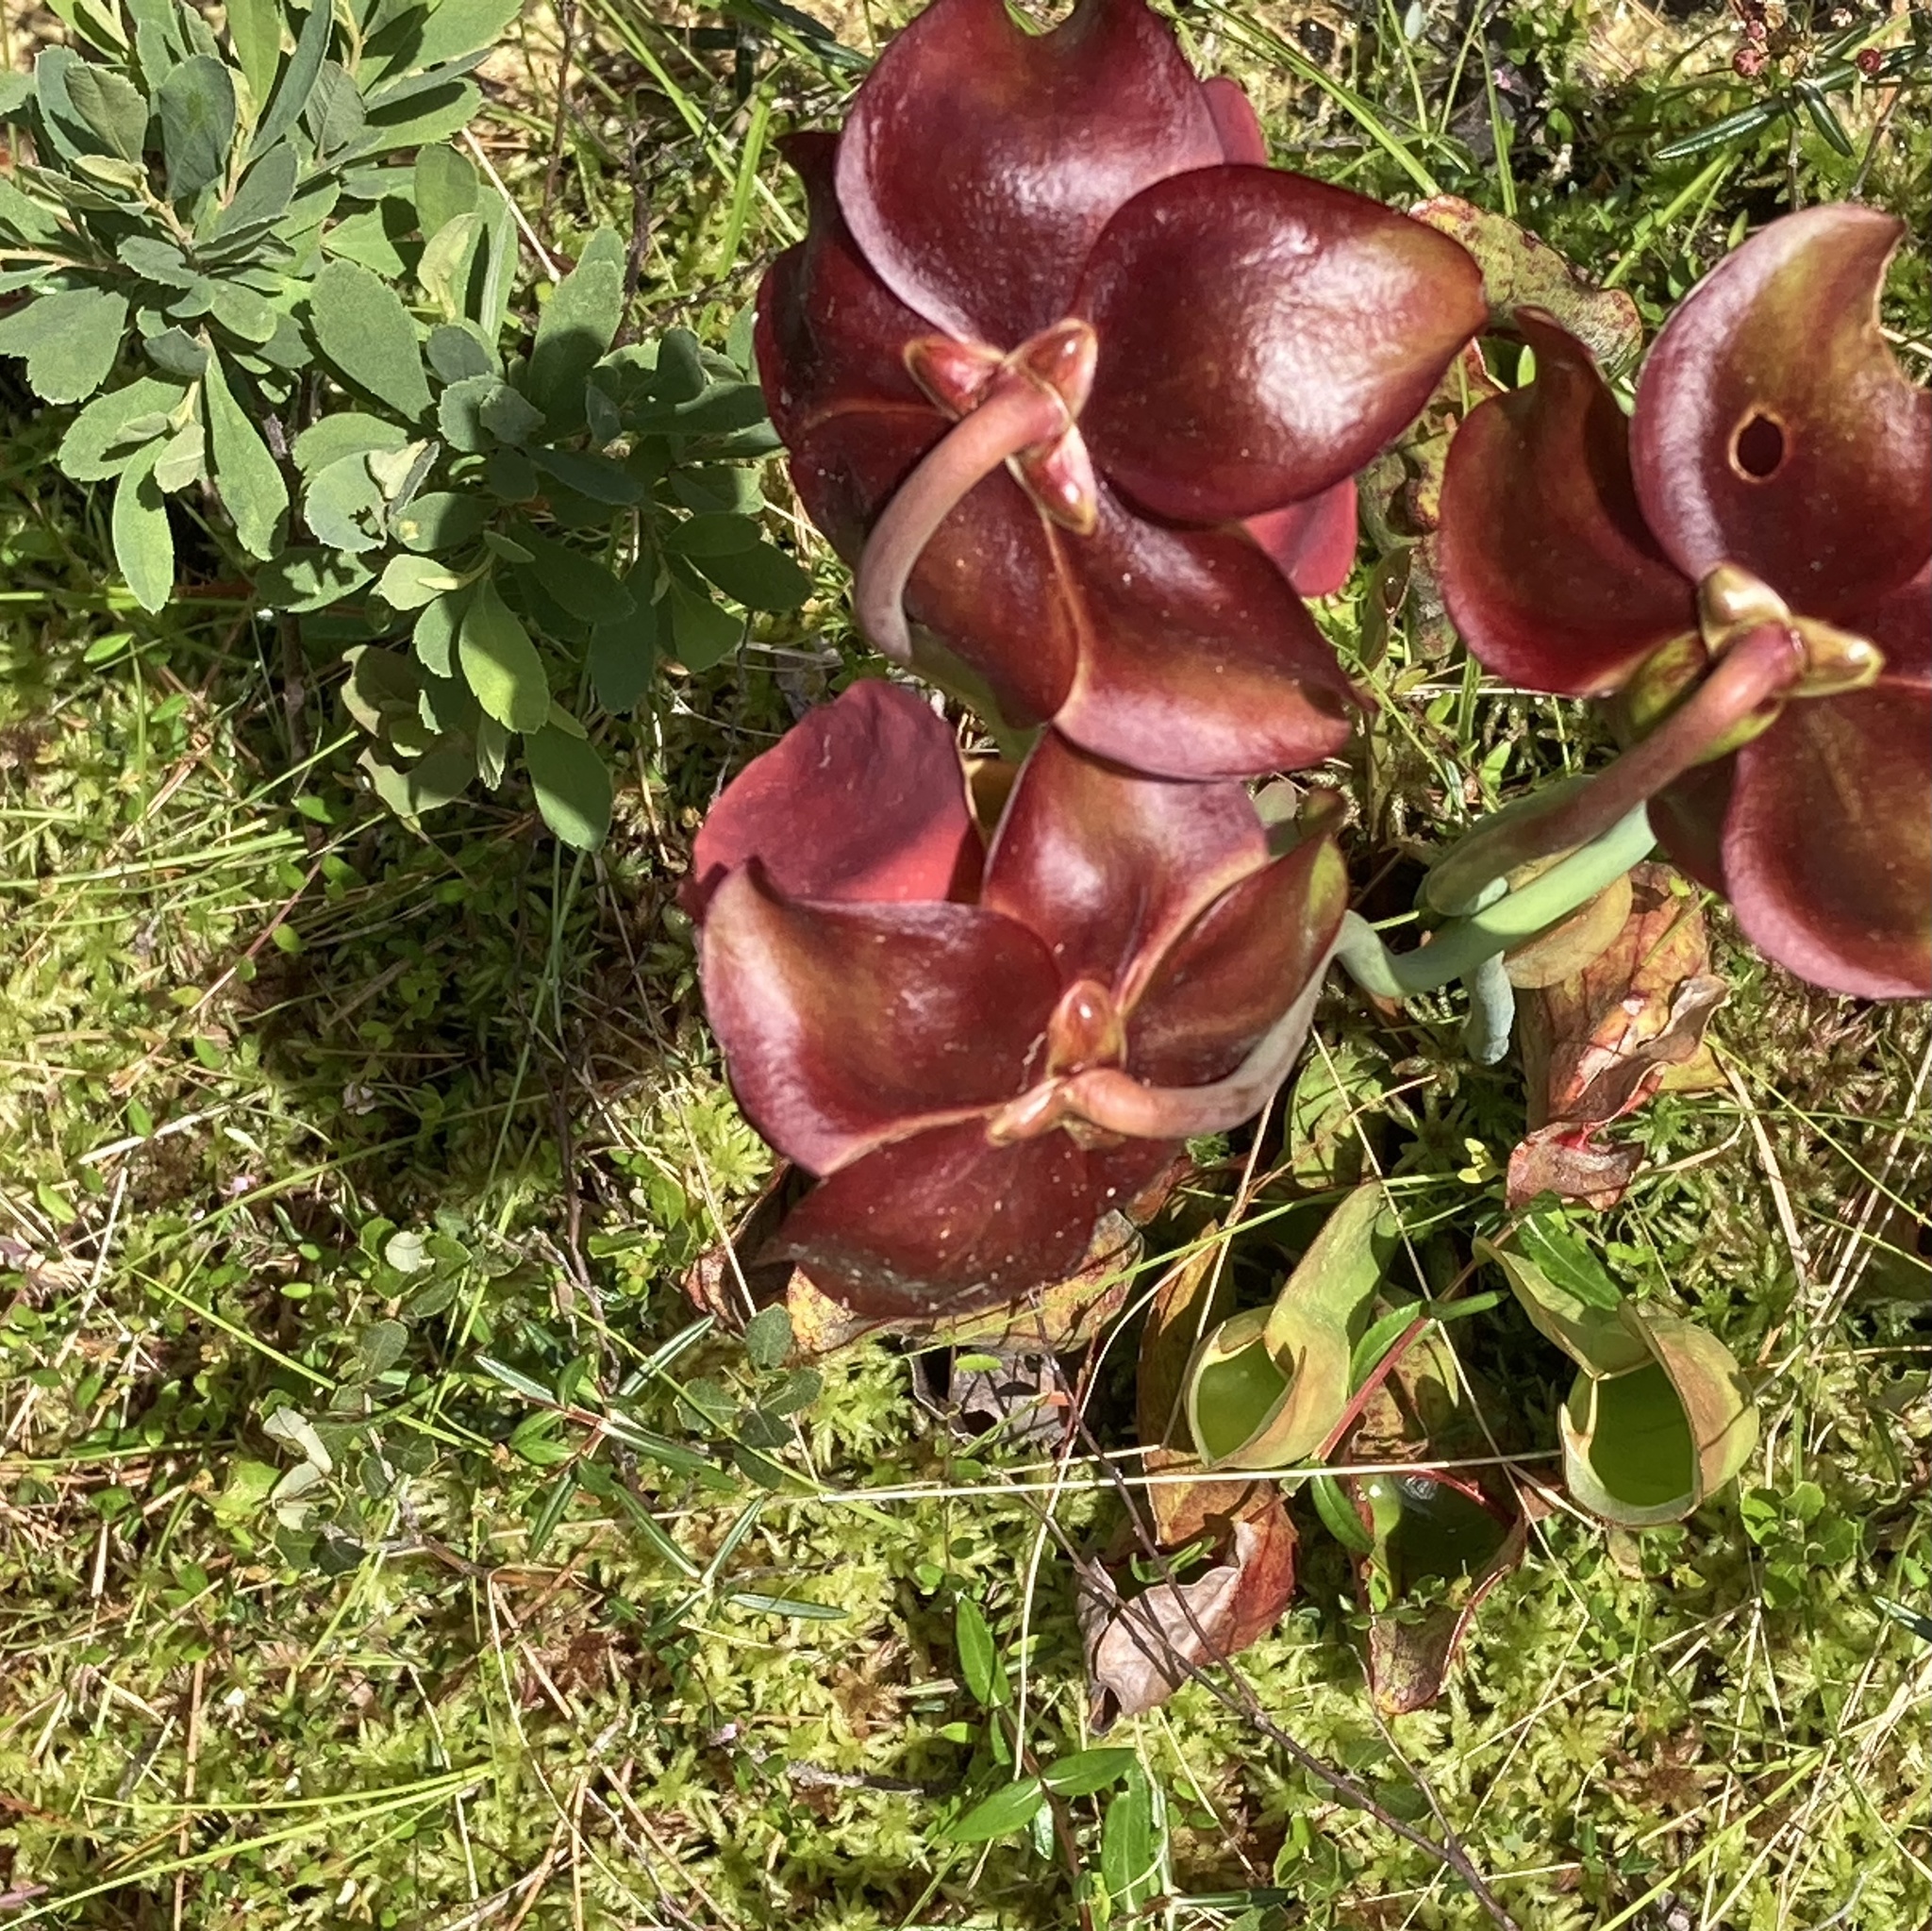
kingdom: Plantae
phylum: Tracheophyta
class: Magnoliopsida
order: Ericales
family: Sarraceniaceae
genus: Sarracenia
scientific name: Sarracenia purpurea
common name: Pitcherplant
